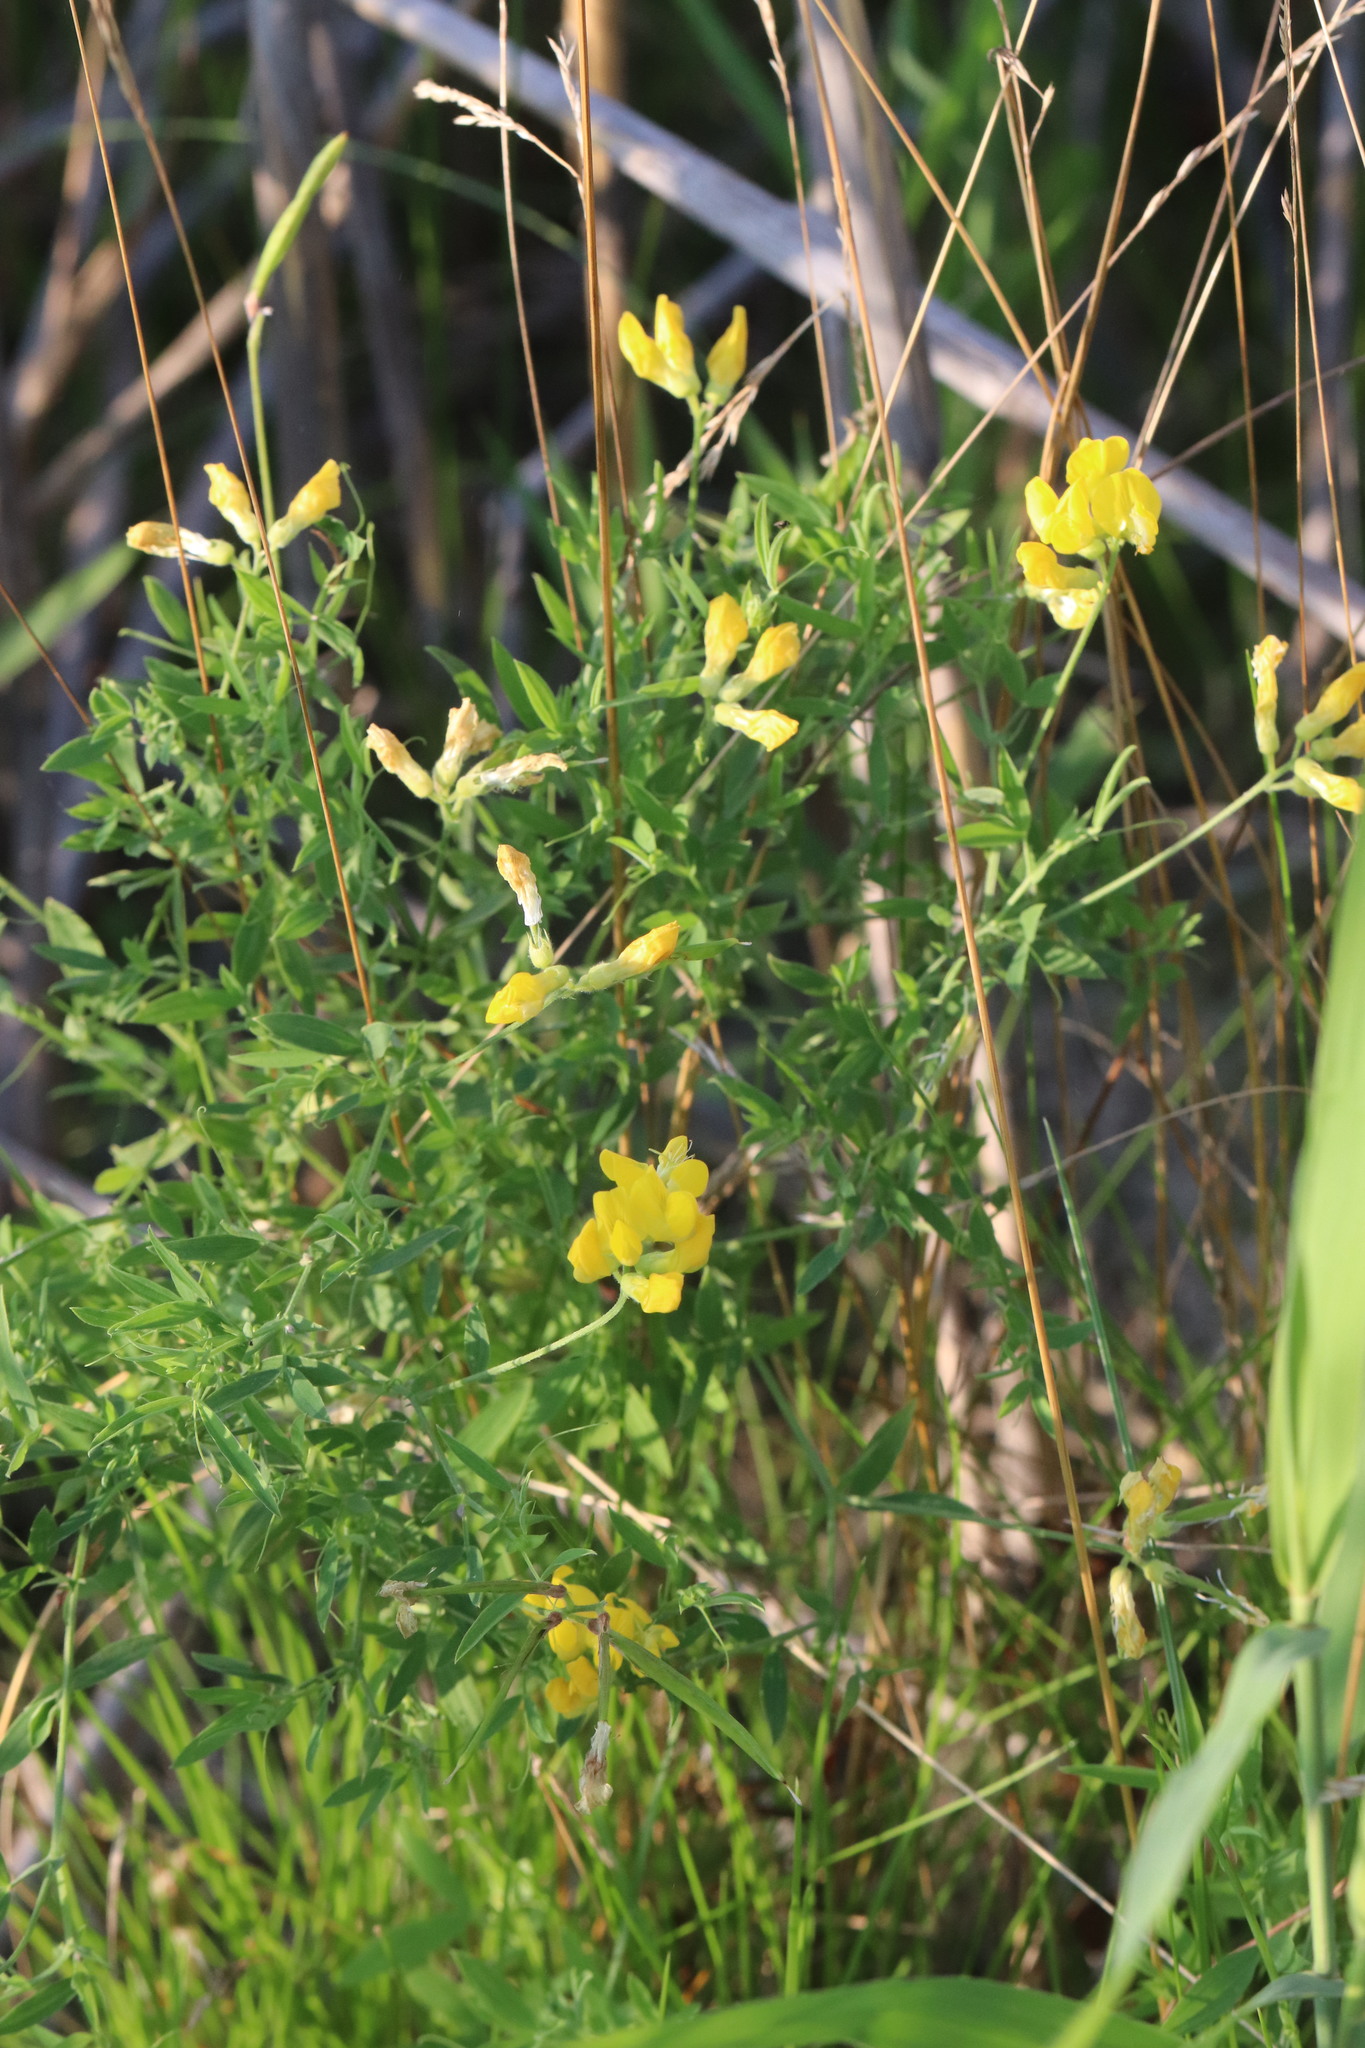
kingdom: Plantae
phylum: Tracheophyta
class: Magnoliopsida
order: Fabales
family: Fabaceae
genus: Lathyrus
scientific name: Lathyrus pratensis
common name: Meadow vetchling
